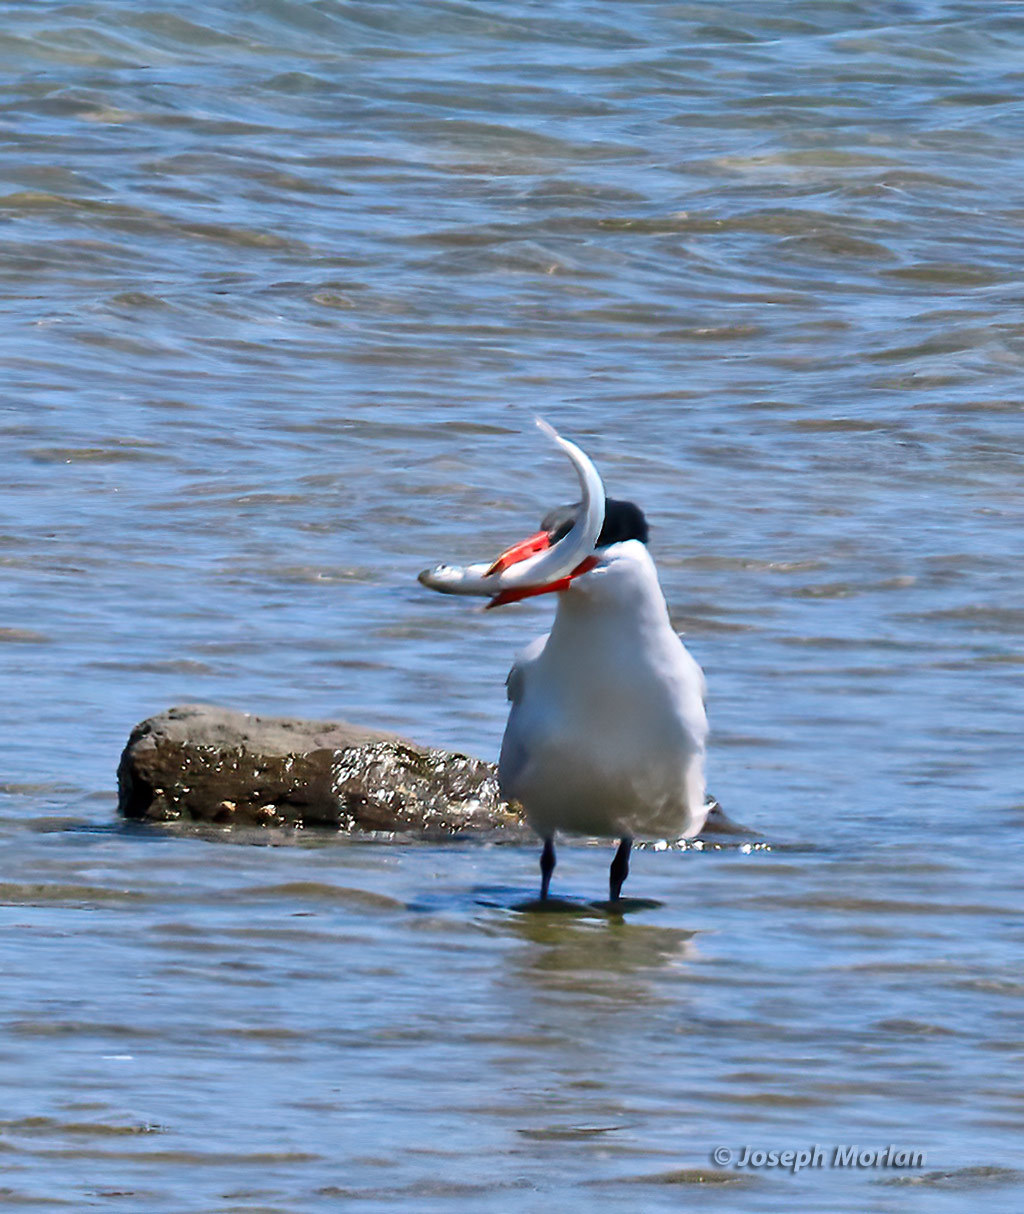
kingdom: Animalia
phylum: Chordata
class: Aves
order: Charadriiformes
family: Laridae
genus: Hydroprogne
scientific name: Hydroprogne caspia
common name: Caspian tern
